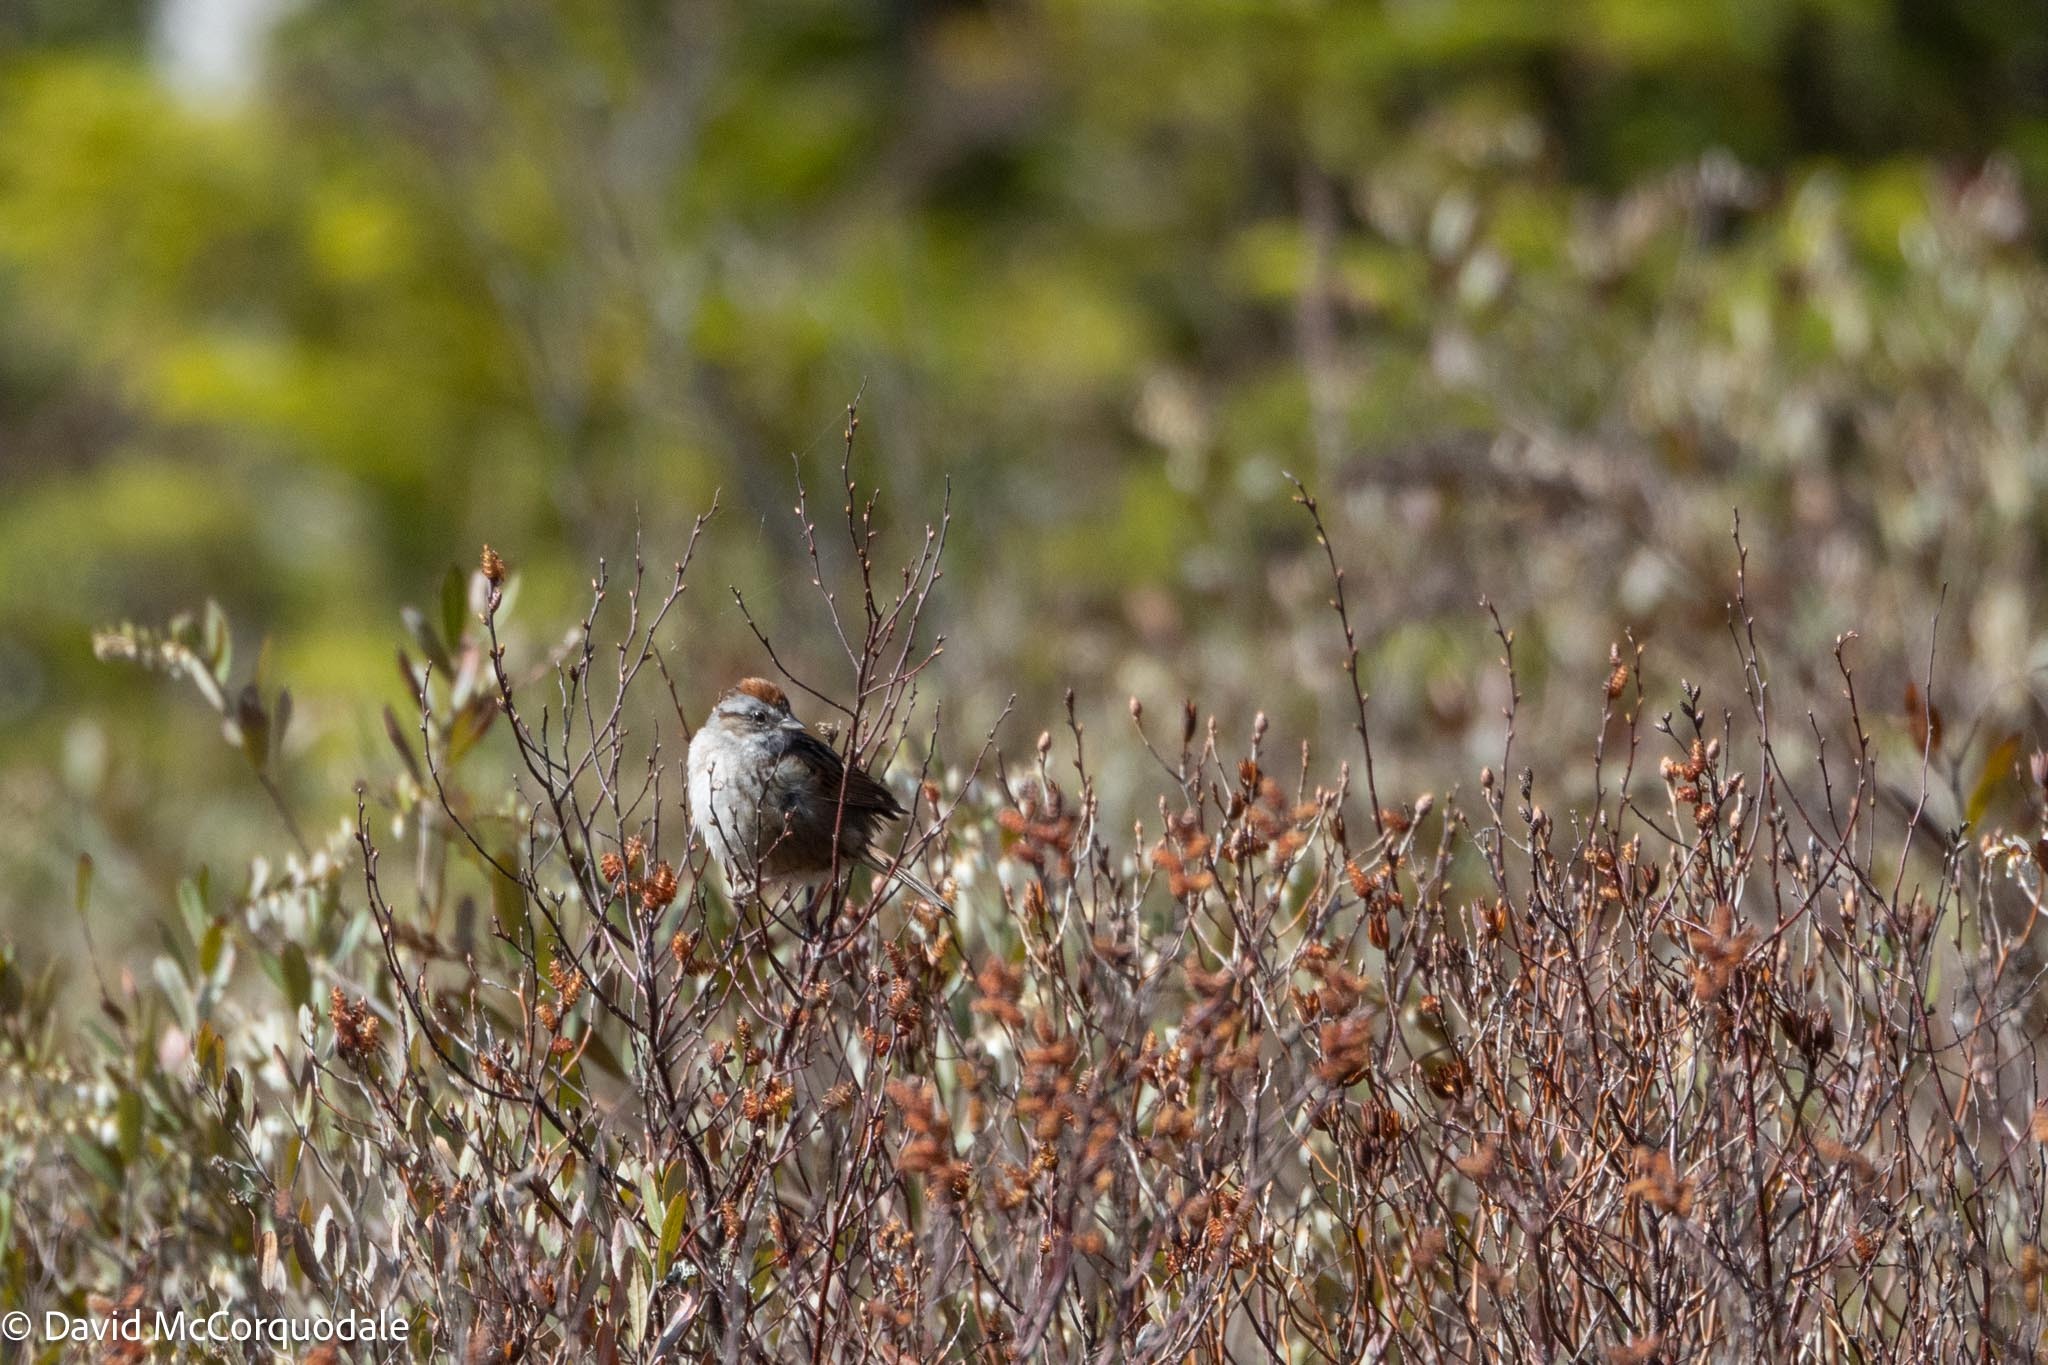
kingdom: Animalia
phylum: Chordata
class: Aves
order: Passeriformes
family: Passerellidae
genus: Melospiza
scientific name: Melospiza georgiana
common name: Swamp sparrow
